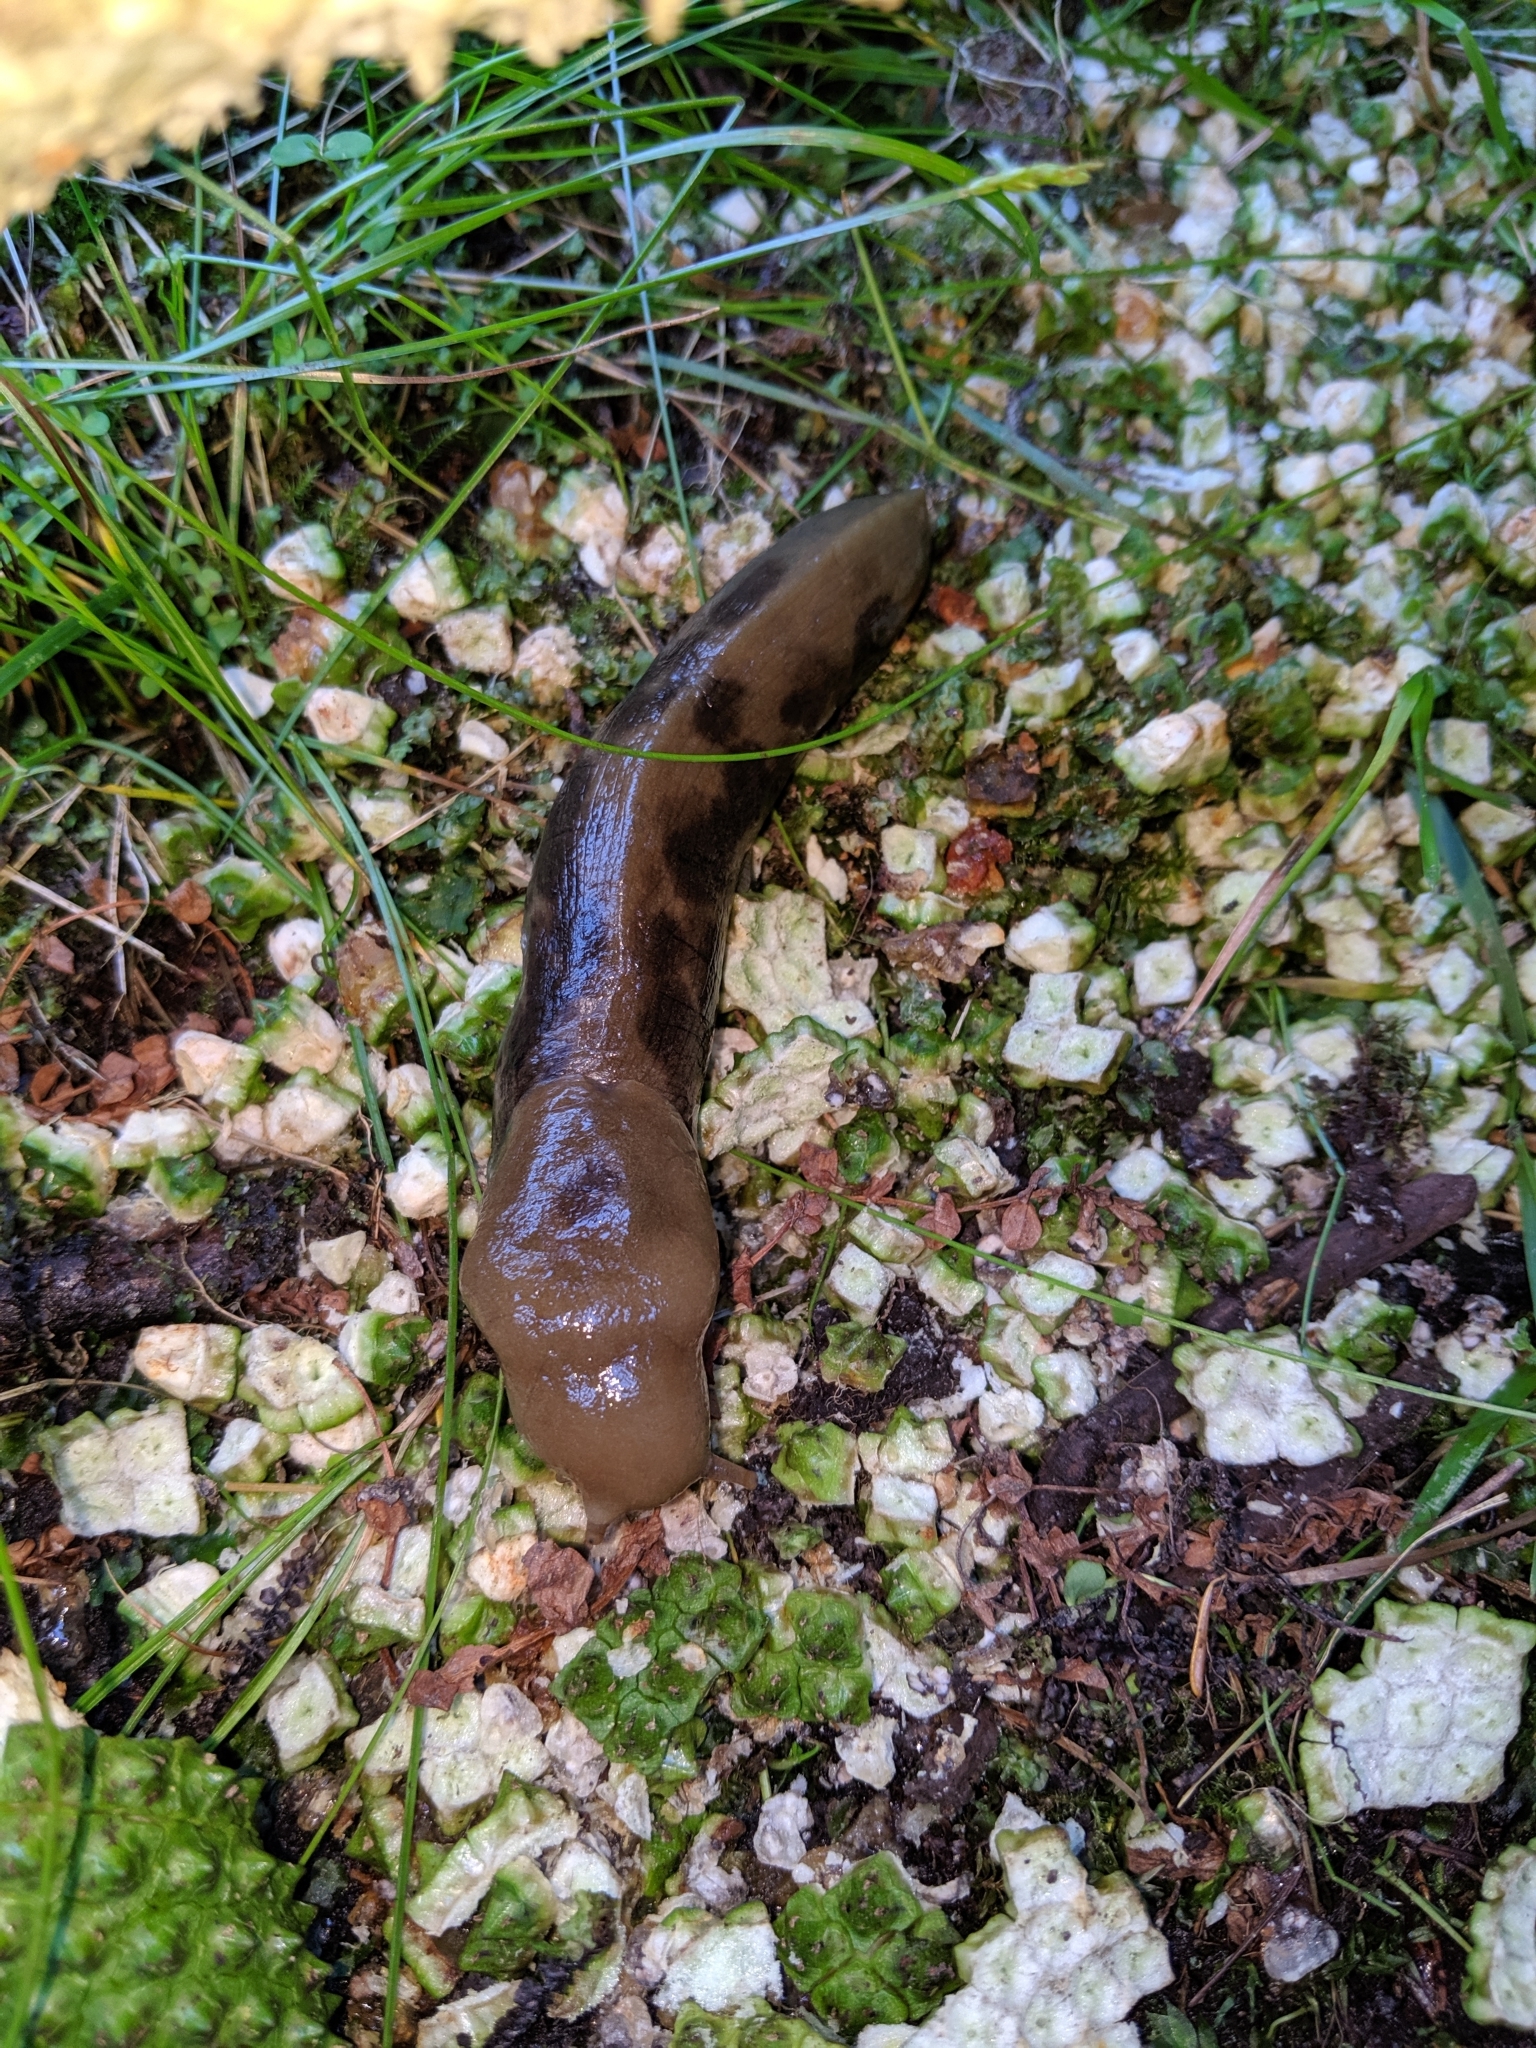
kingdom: Animalia
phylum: Mollusca
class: Gastropoda
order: Stylommatophora
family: Ariolimacidae
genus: Ariolimax
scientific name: Ariolimax columbianus
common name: Pacific banana slug
